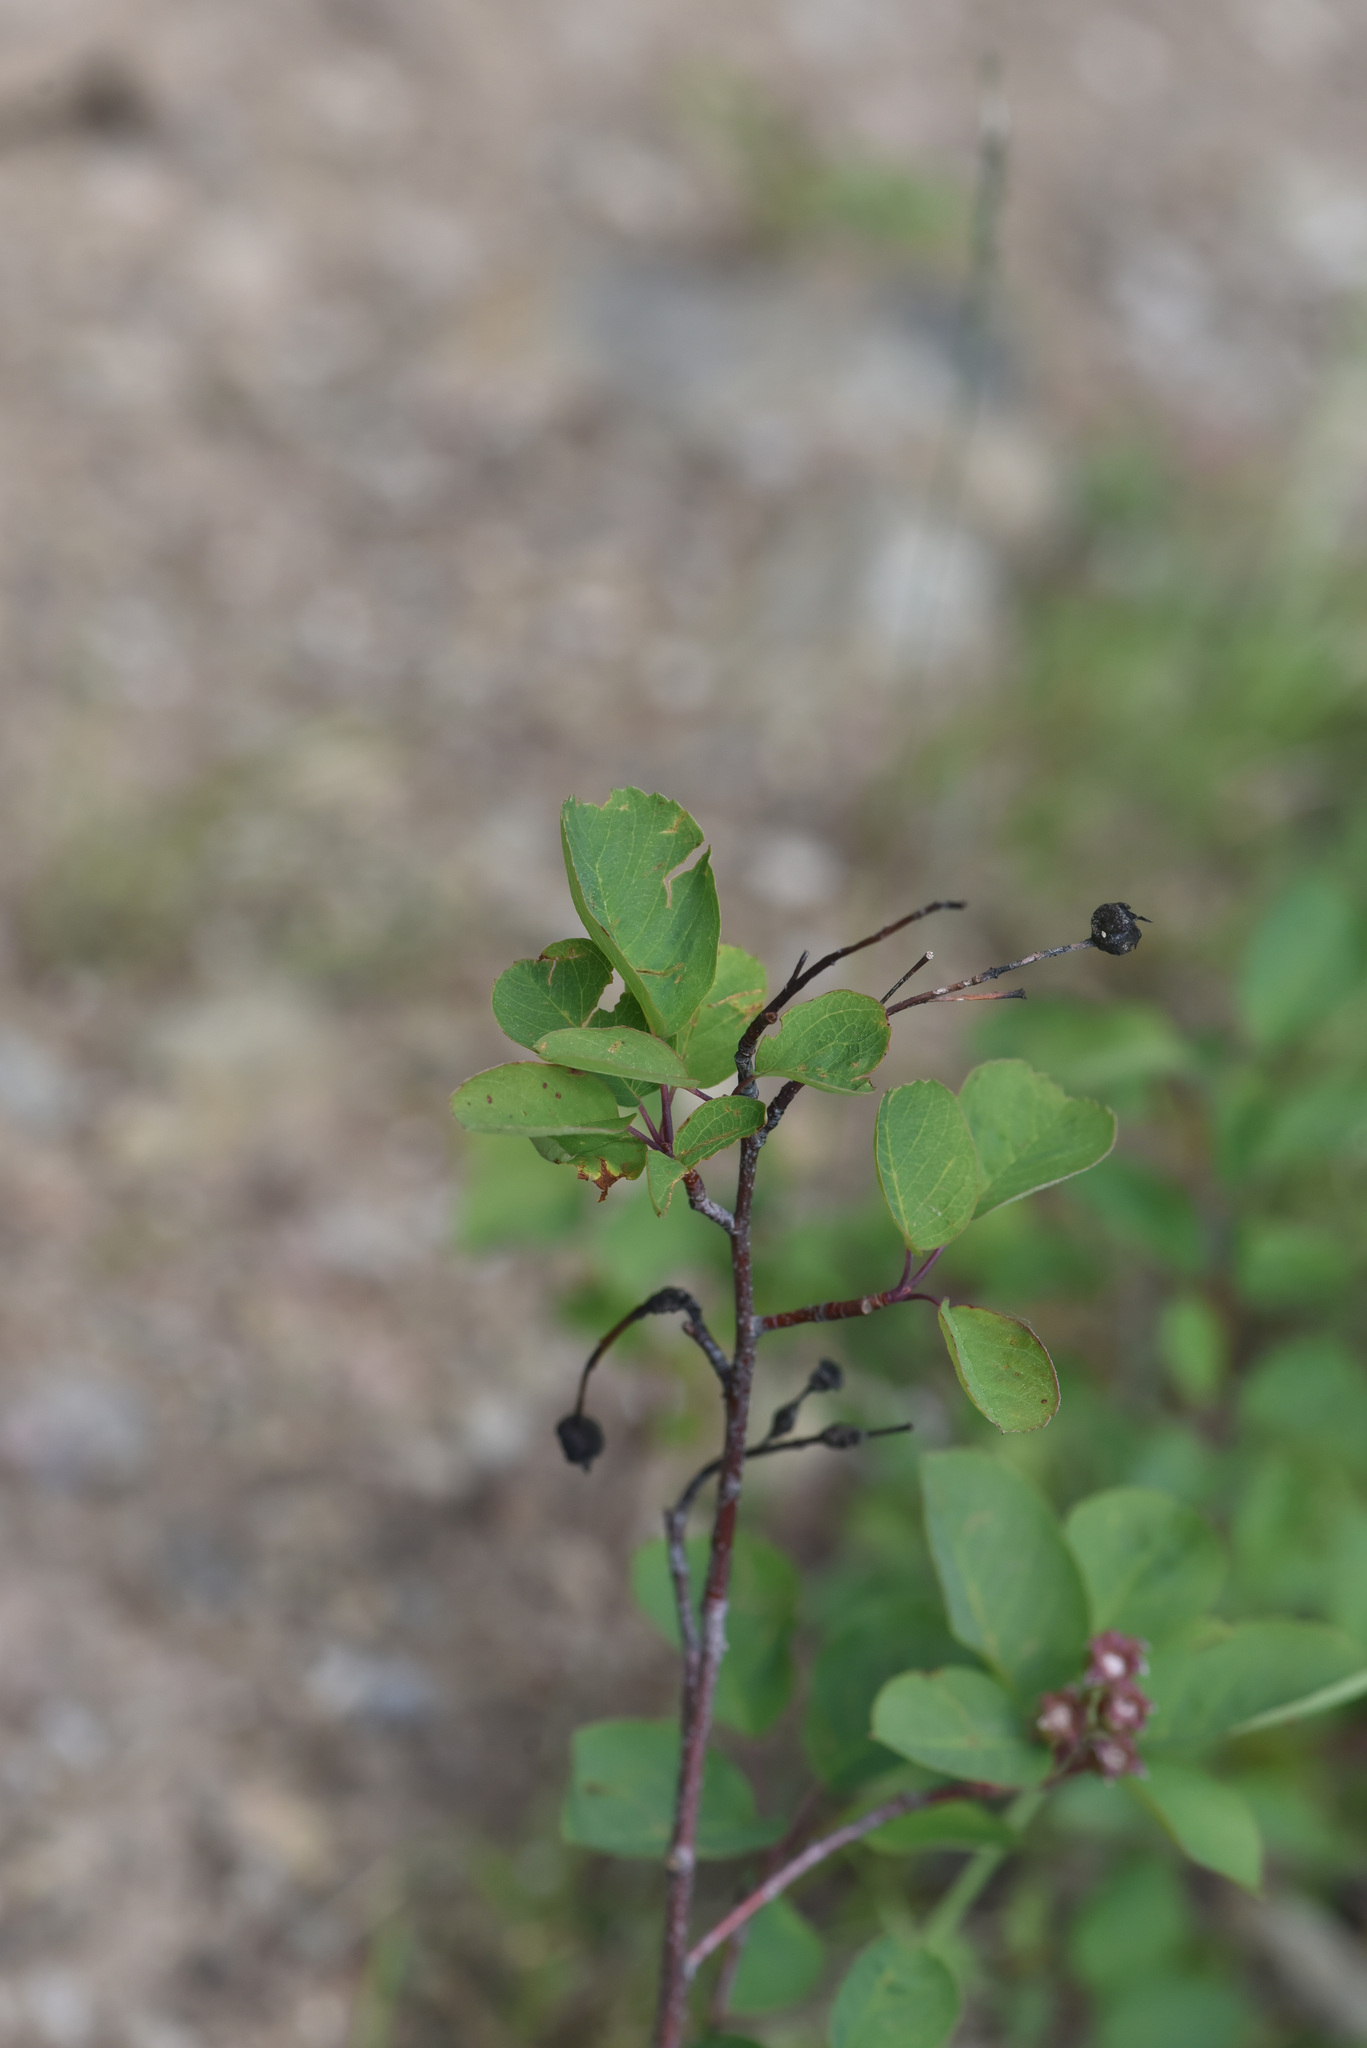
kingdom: Plantae
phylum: Tracheophyta
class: Magnoliopsida
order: Rosales
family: Rosaceae
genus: Amelanchier
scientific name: Amelanchier alnifolia
